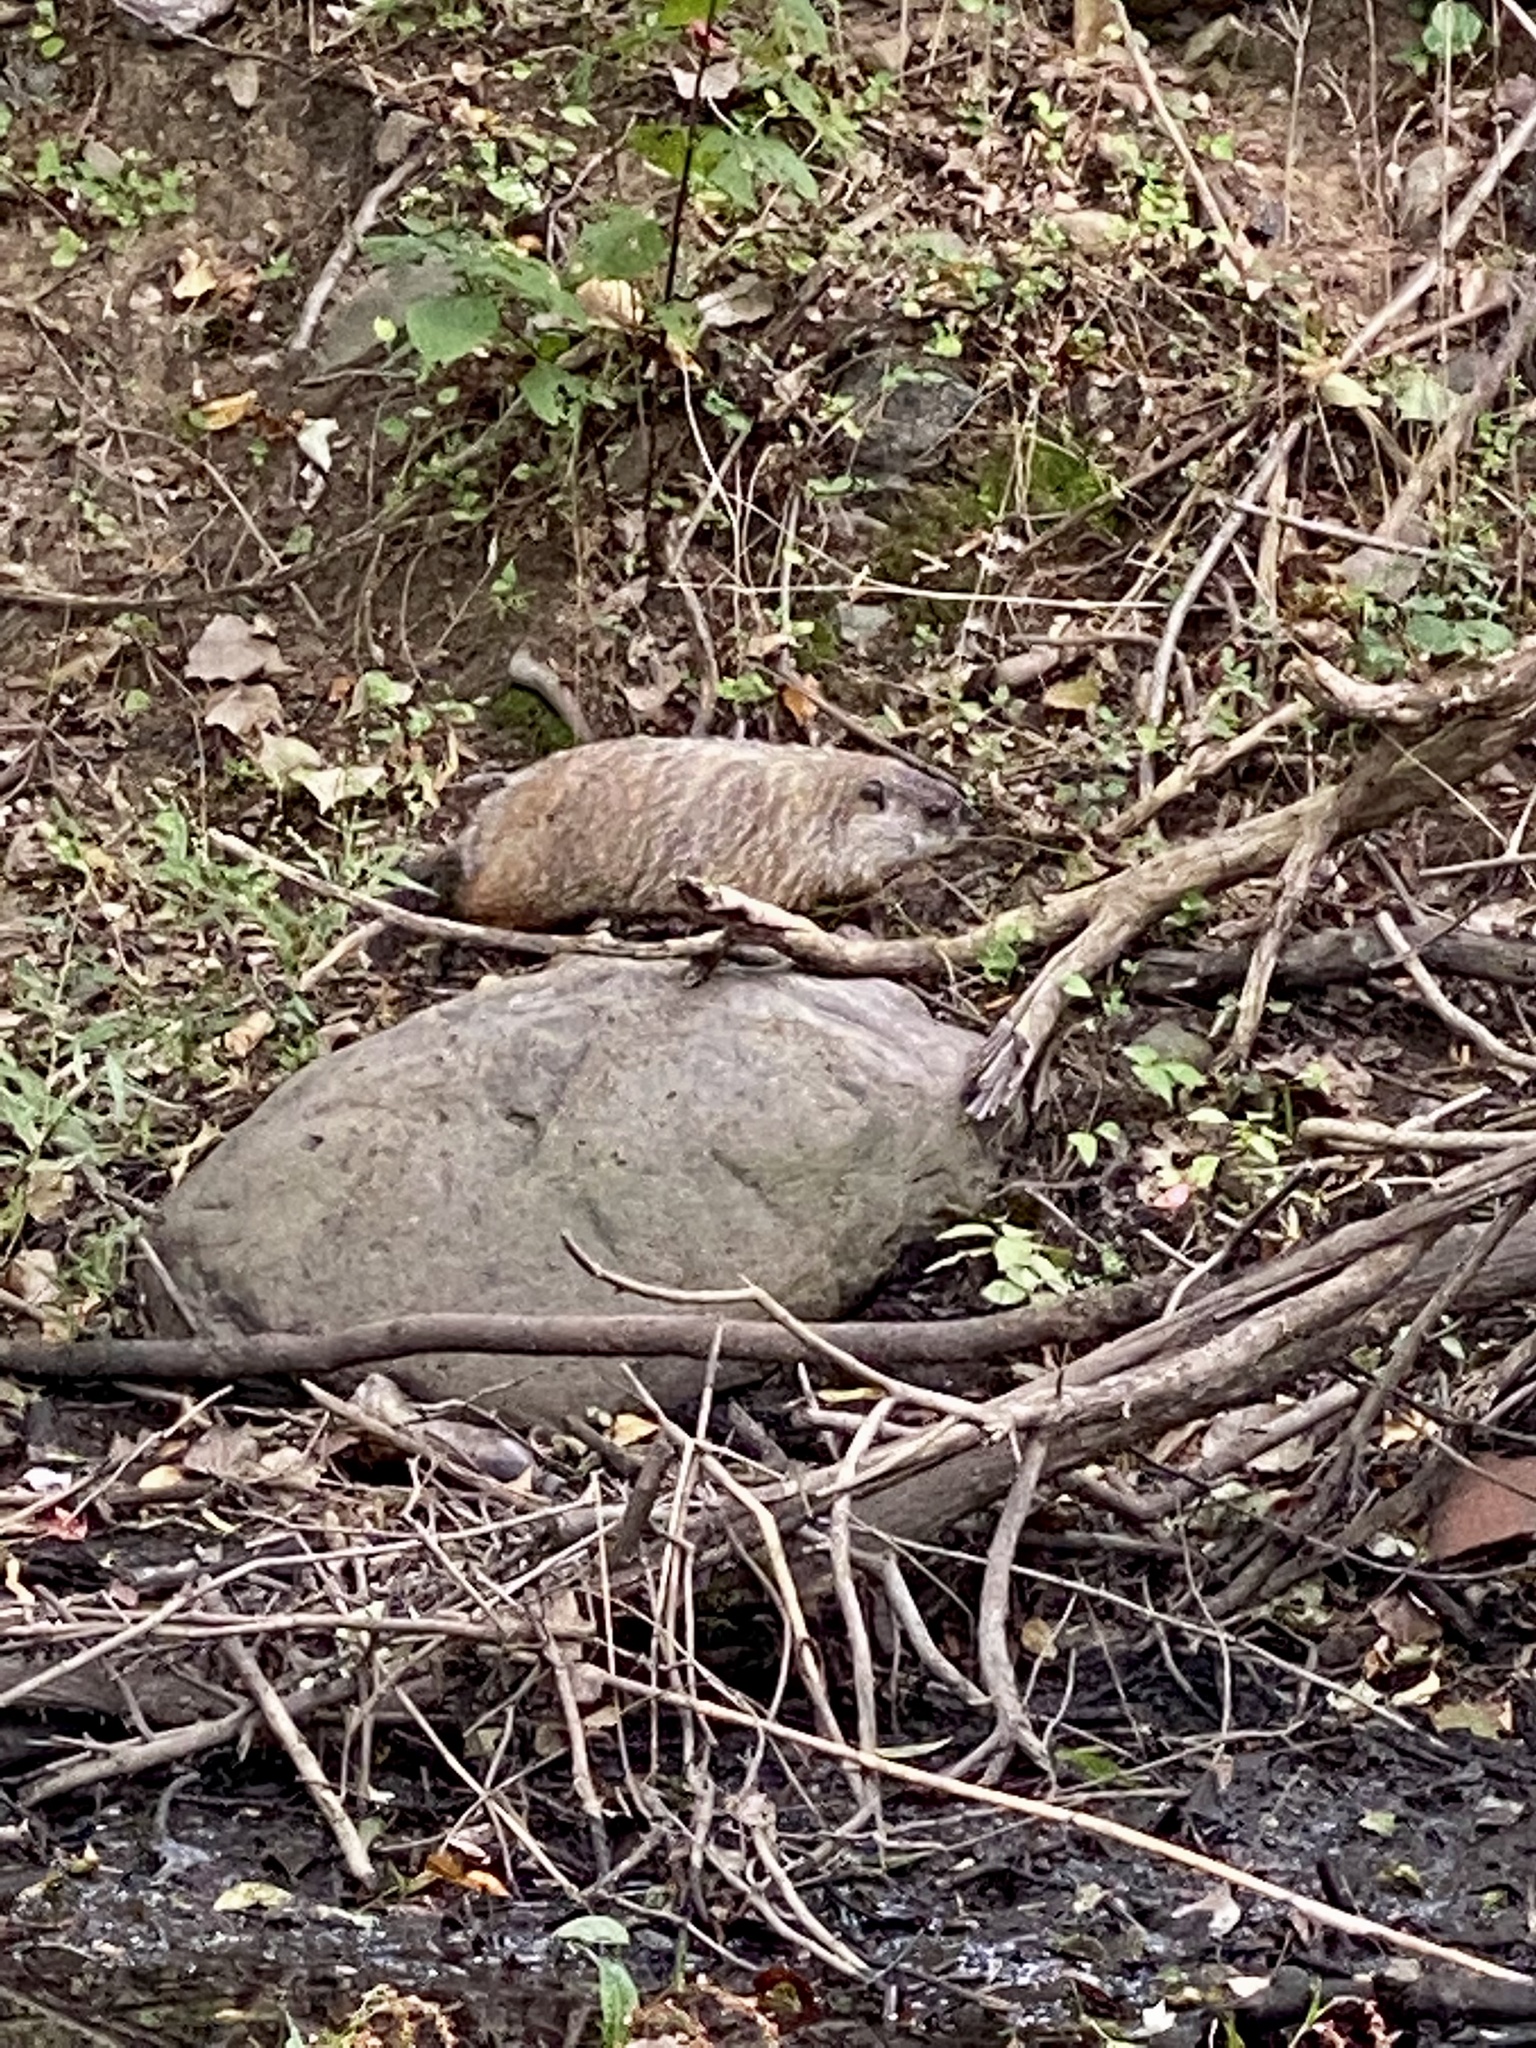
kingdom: Animalia
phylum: Chordata
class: Mammalia
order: Rodentia
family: Sciuridae
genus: Marmota
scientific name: Marmota monax
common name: Groundhog
